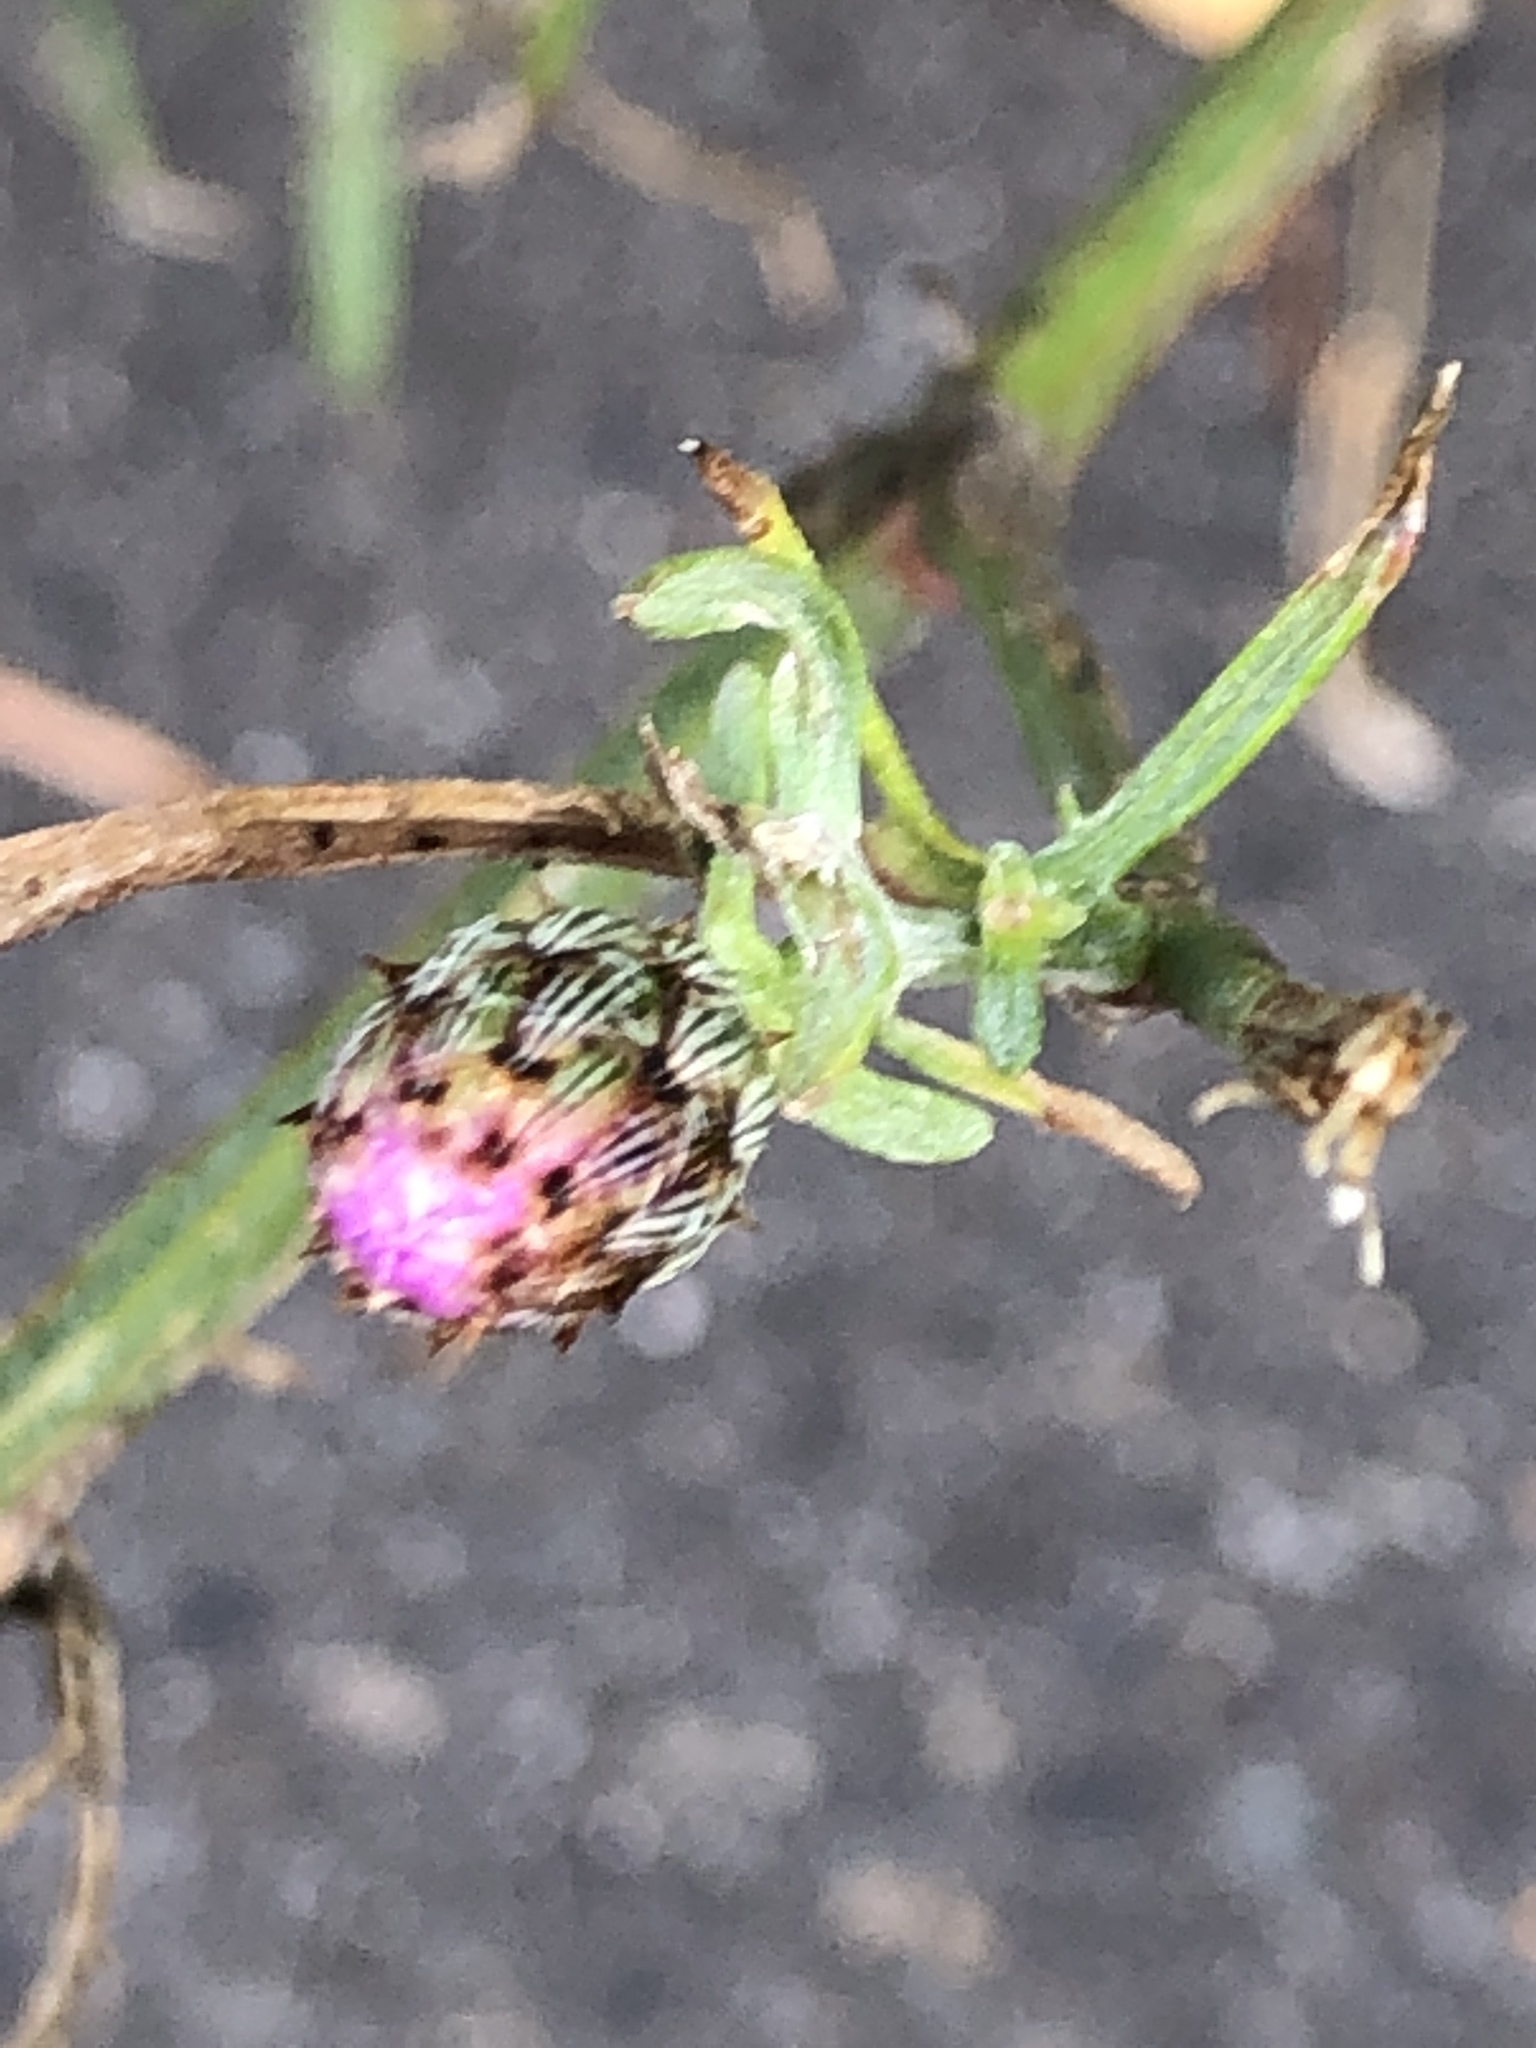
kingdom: Plantae
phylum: Tracheophyta
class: Magnoliopsida
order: Asterales
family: Asteraceae
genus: Centaurea
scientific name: Centaurea stoebe
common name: Spotted knapweed
